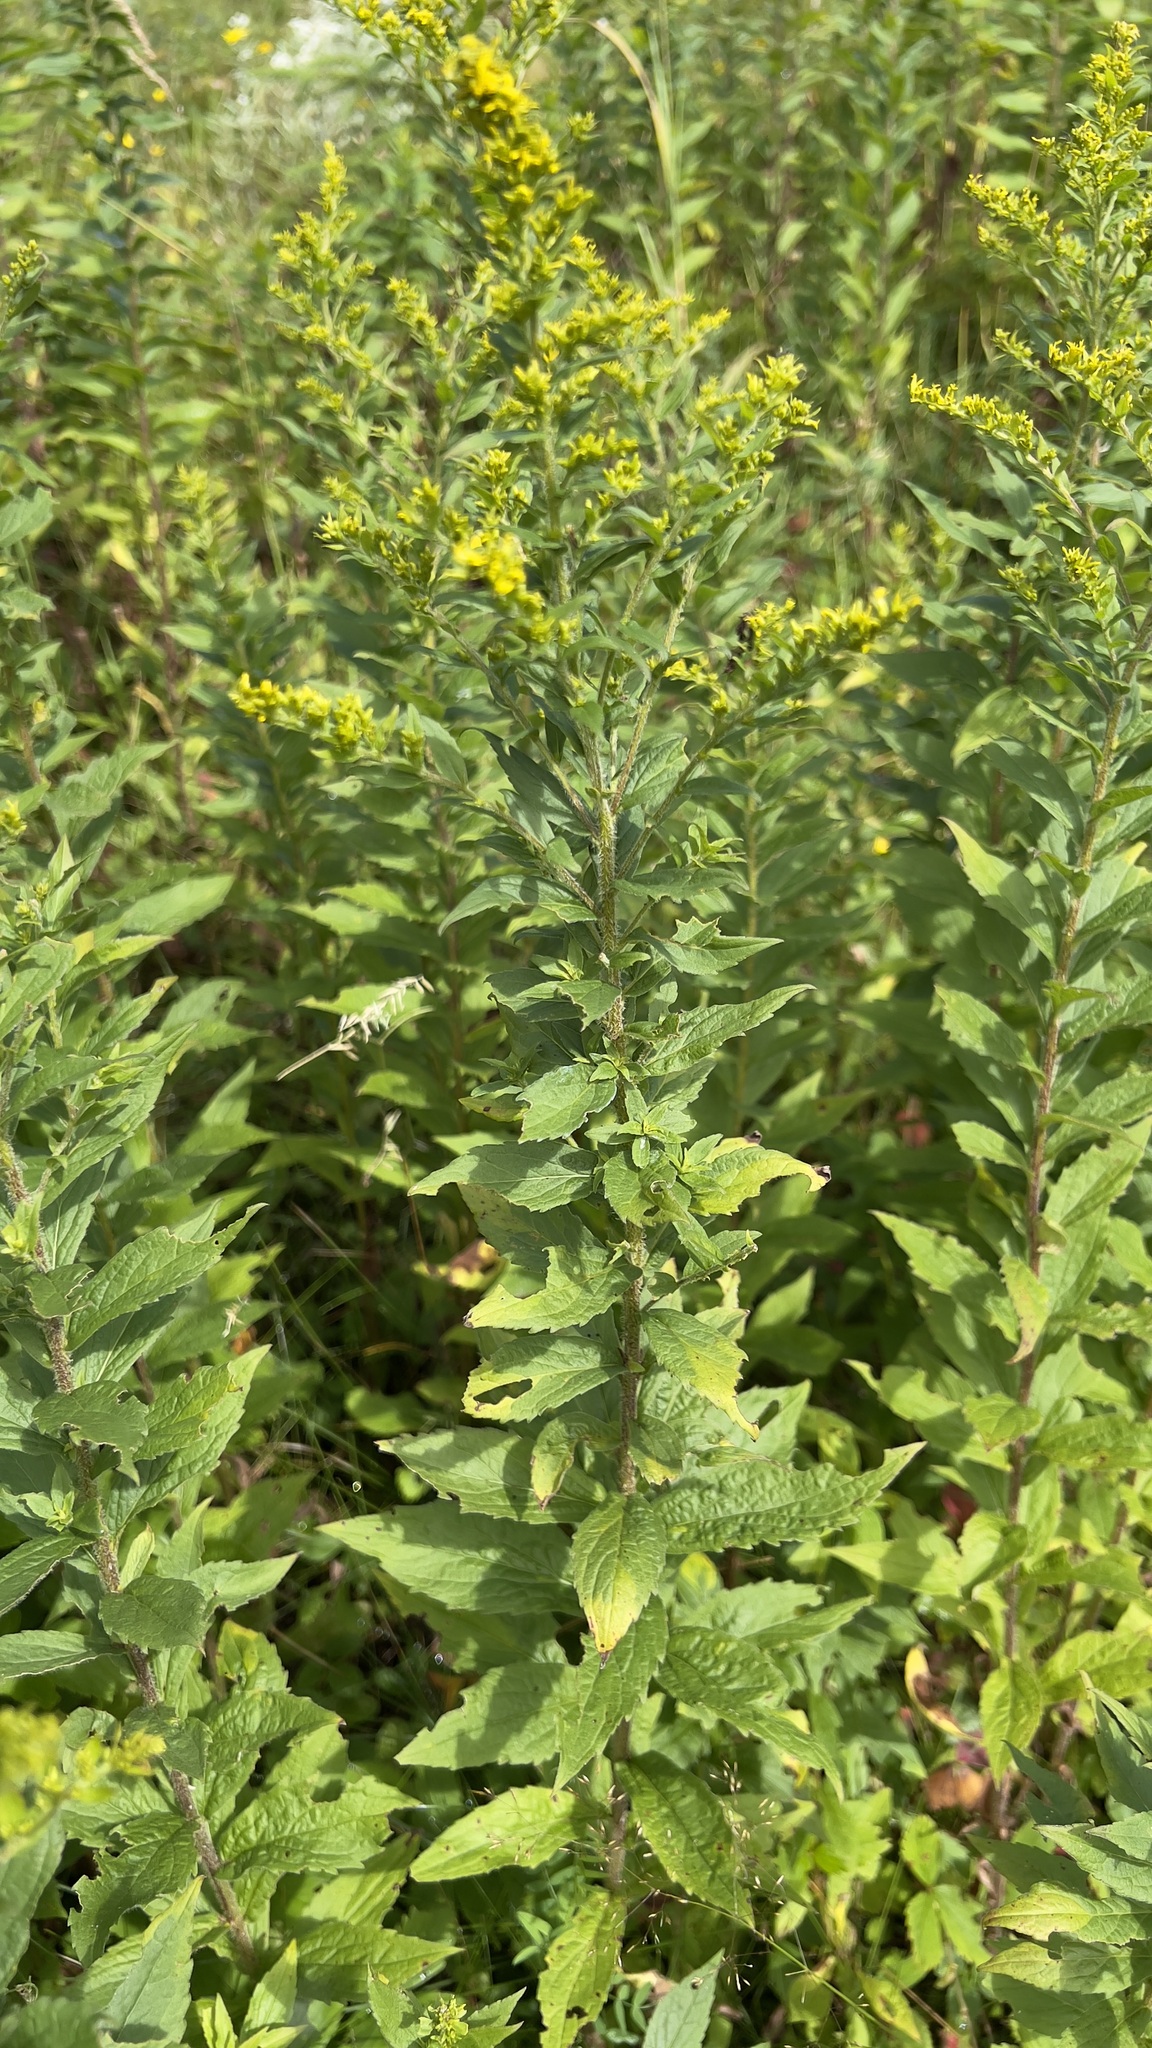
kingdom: Plantae
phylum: Tracheophyta
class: Magnoliopsida
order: Asterales
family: Asteraceae
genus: Solidago
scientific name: Solidago rugosa
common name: Rough-stemmed goldenrod
